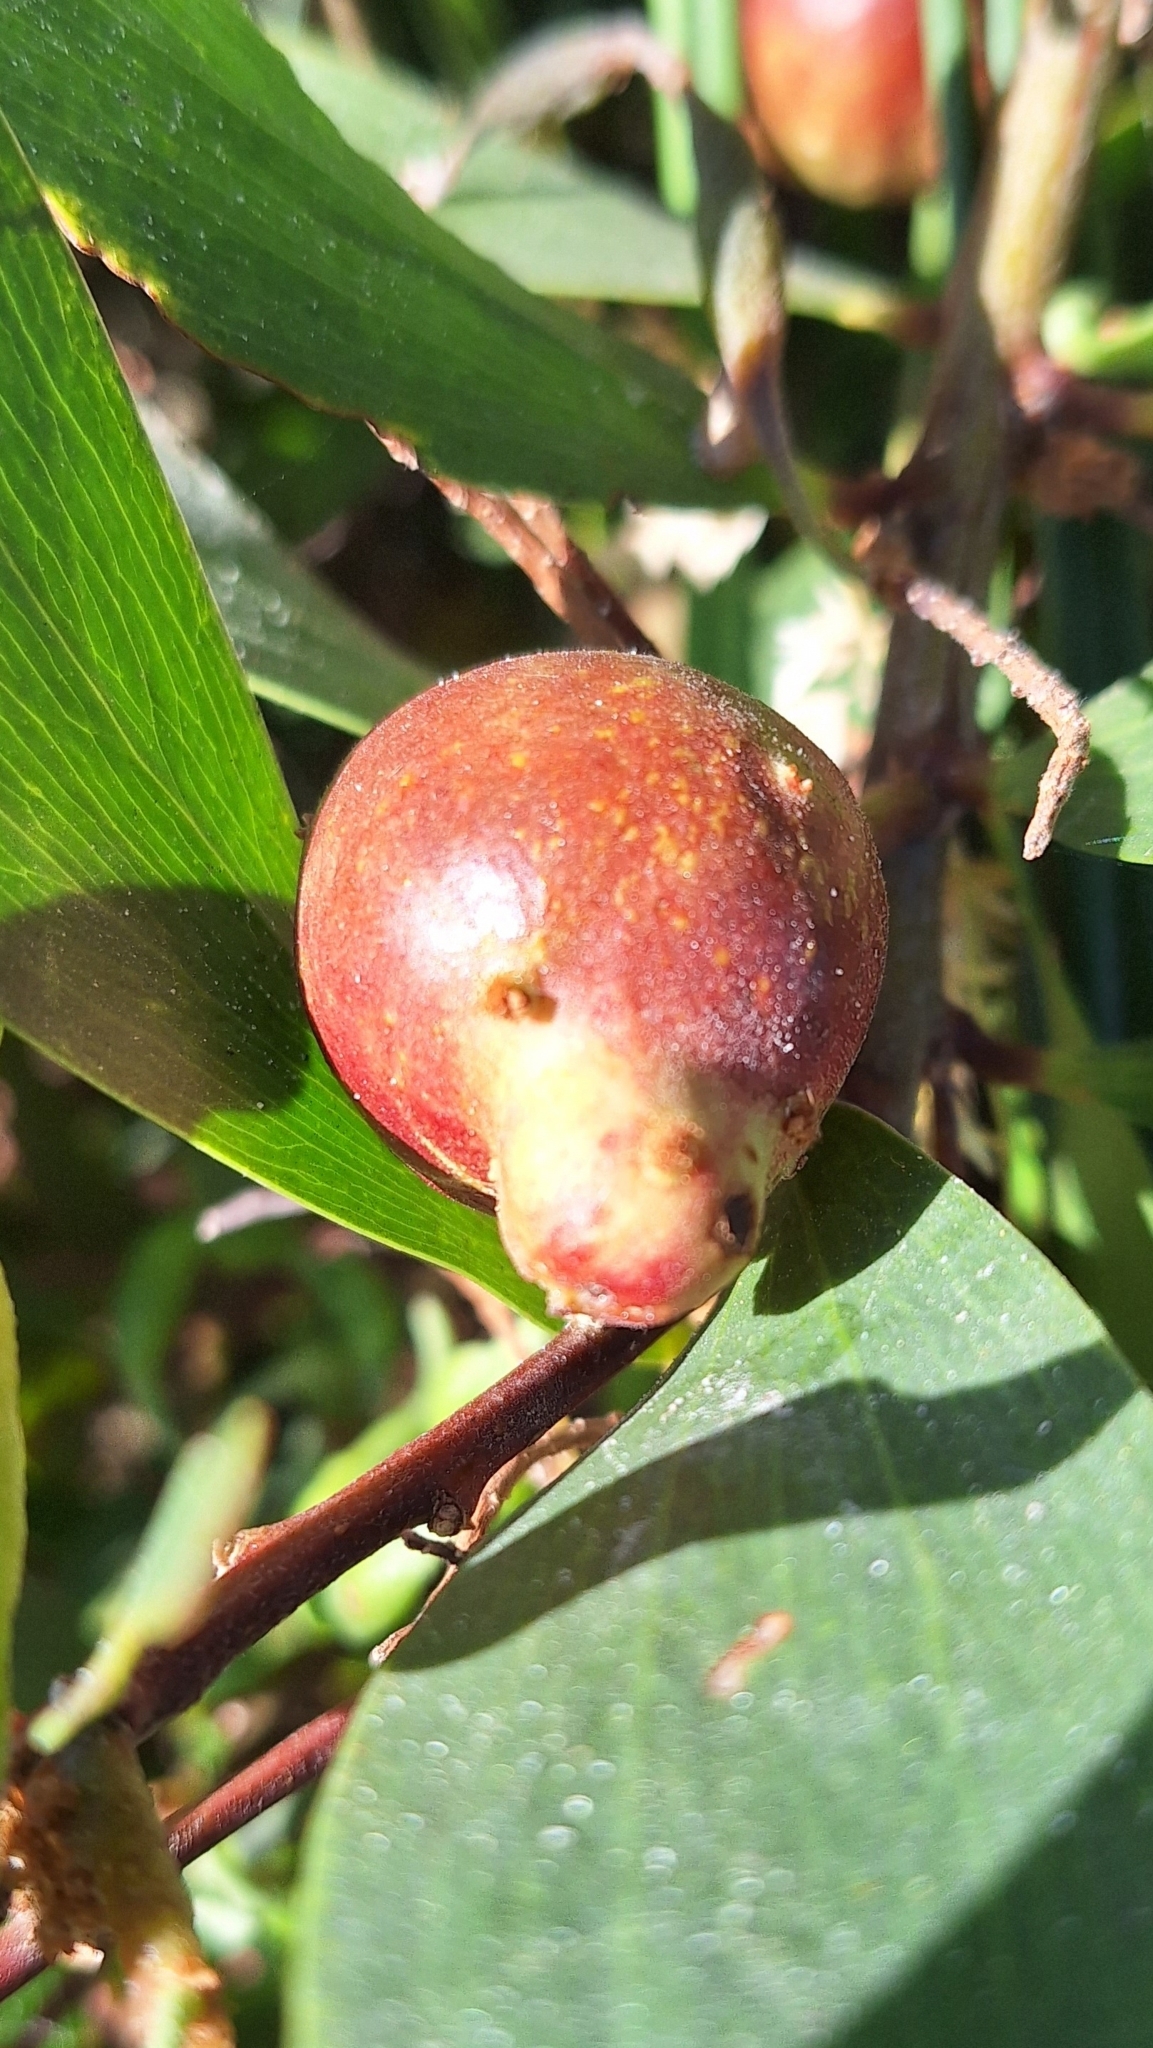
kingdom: Animalia
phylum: Arthropoda
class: Insecta
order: Hymenoptera
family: Pteromalidae
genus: Trichilogaster
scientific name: Trichilogaster acaciaelongifoliae
